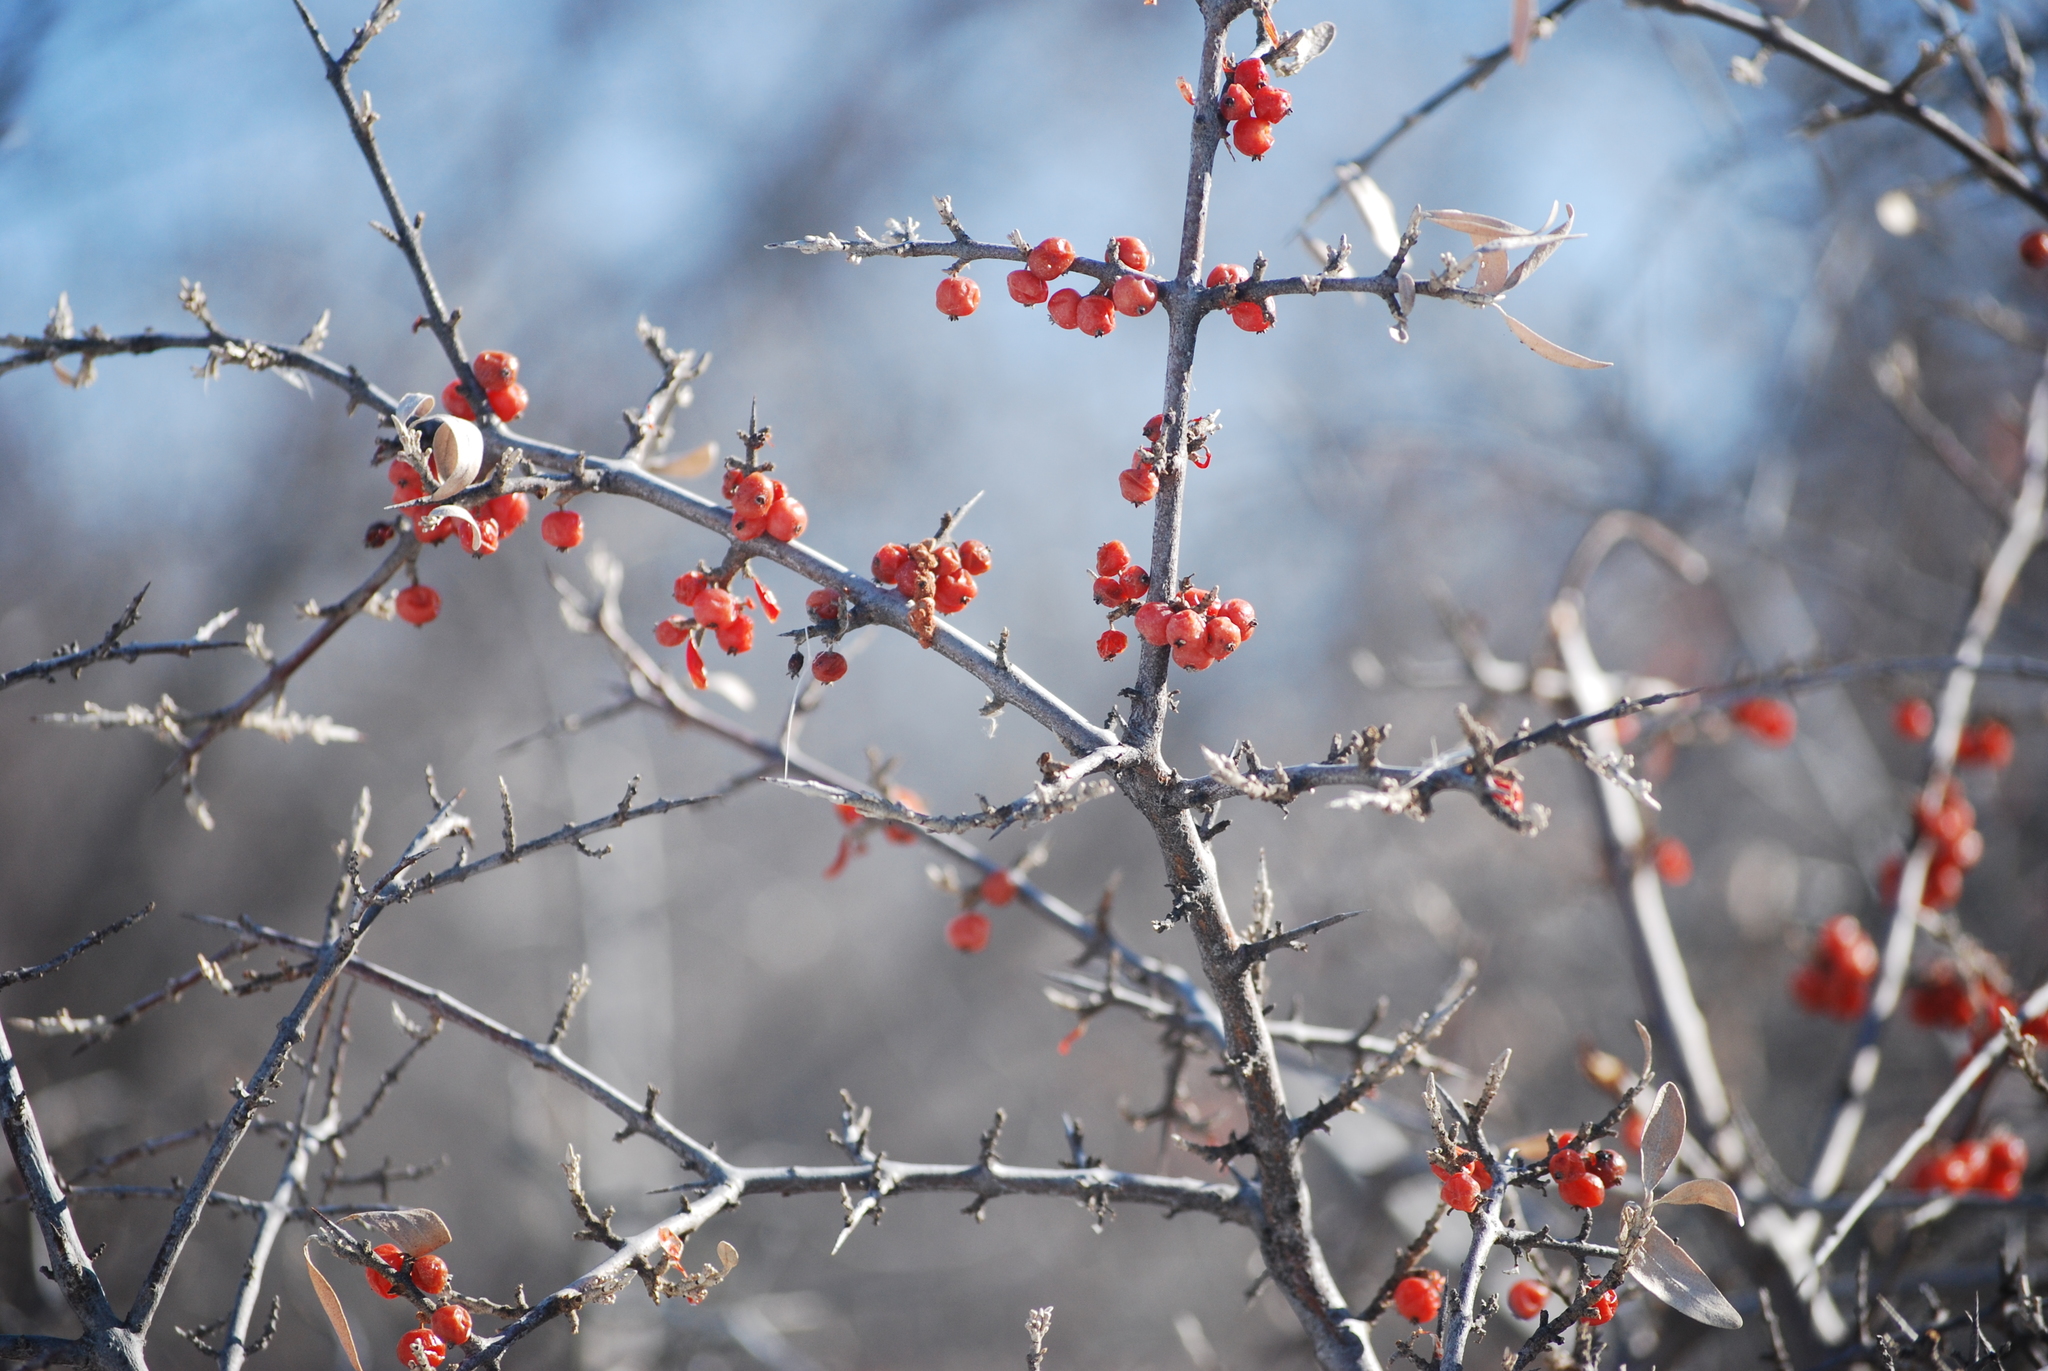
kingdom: Plantae
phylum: Tracheophyta
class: Magnoliopsida
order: Rosales
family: Elaeagnaceae
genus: Shepherdia
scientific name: Shepherdia argentea
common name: Silver buffaloberry
